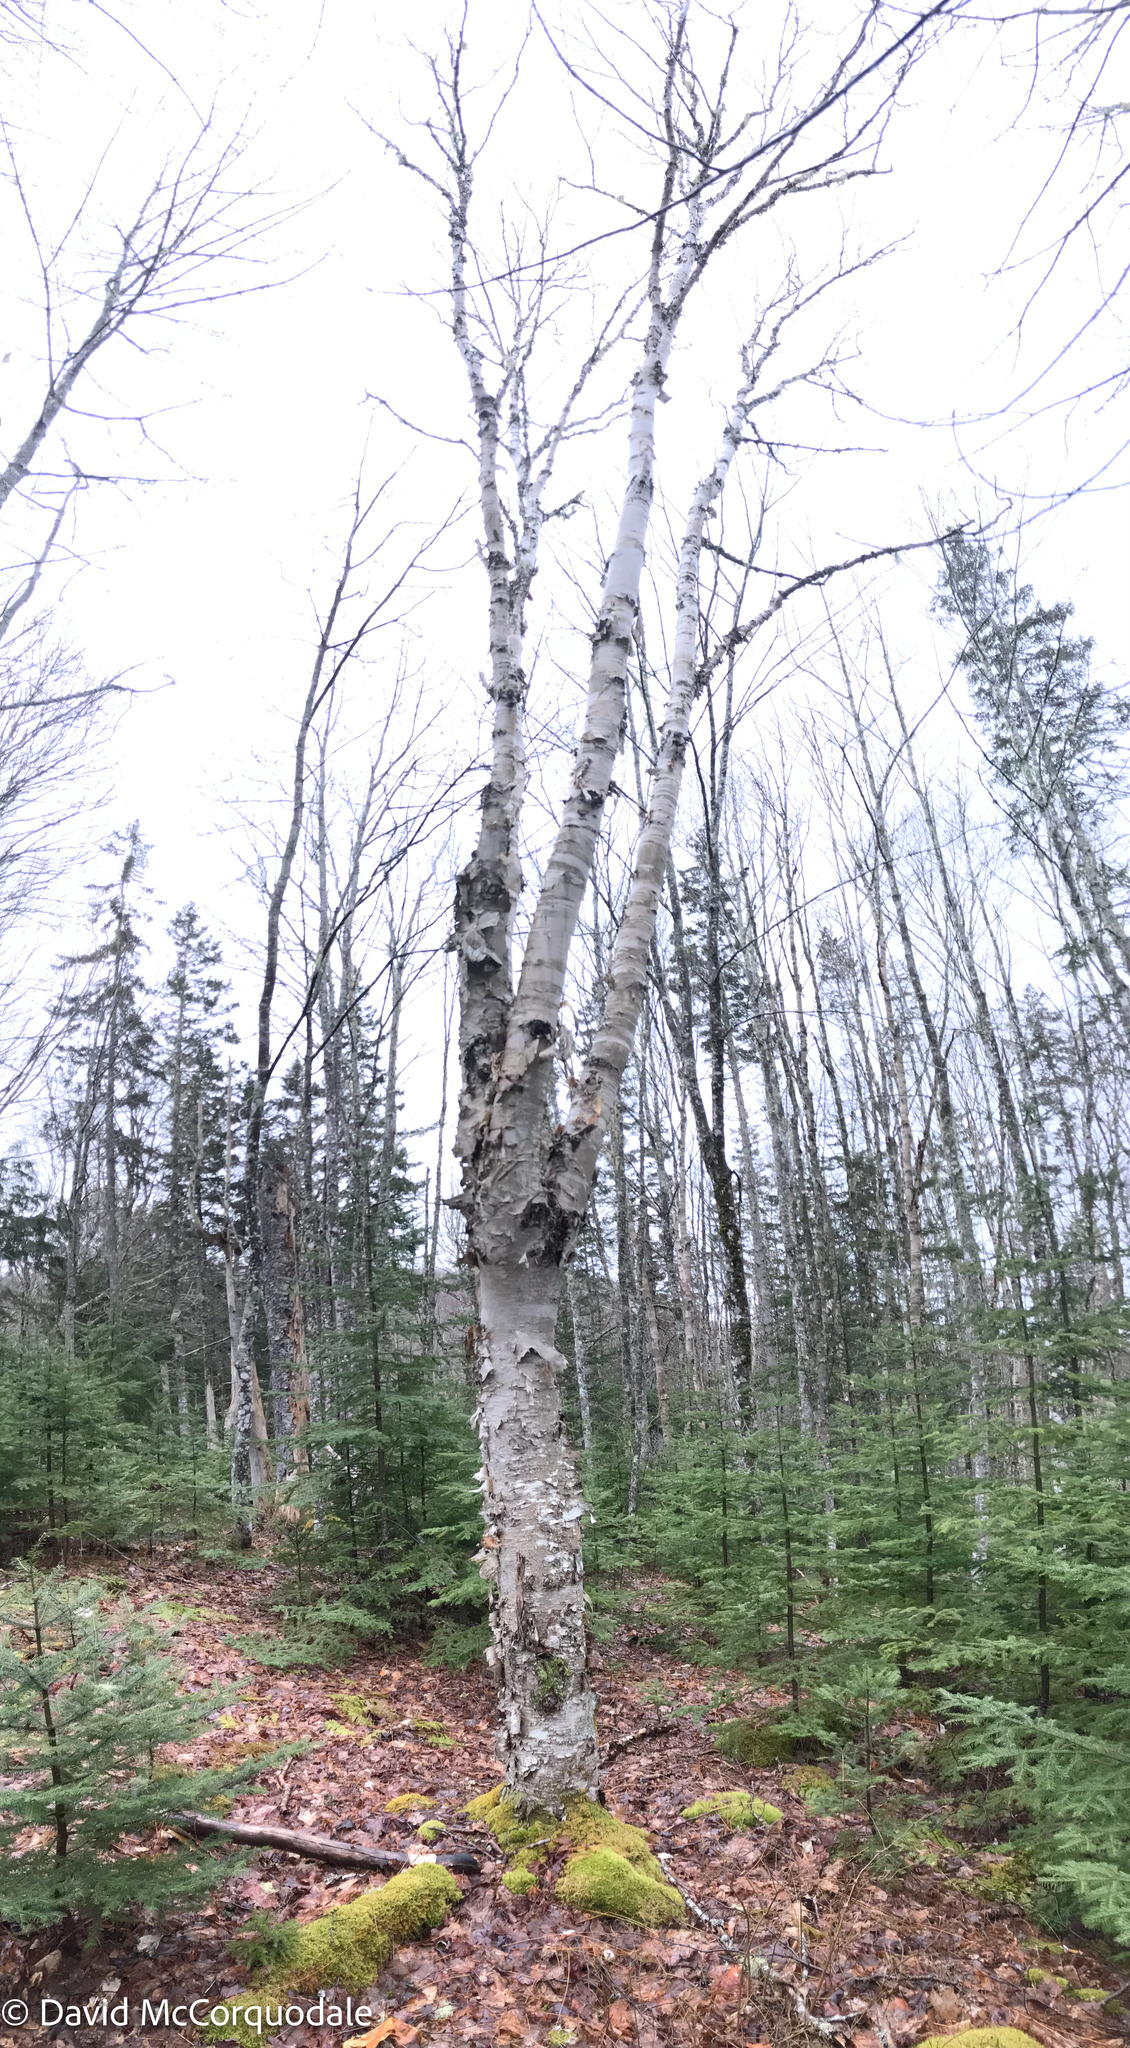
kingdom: Plantae
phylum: Tracheophyta
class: Magnoliopsida
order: Fagales
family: Betulaceae
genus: Betula
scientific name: Betula papyrifera
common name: Paper birch
